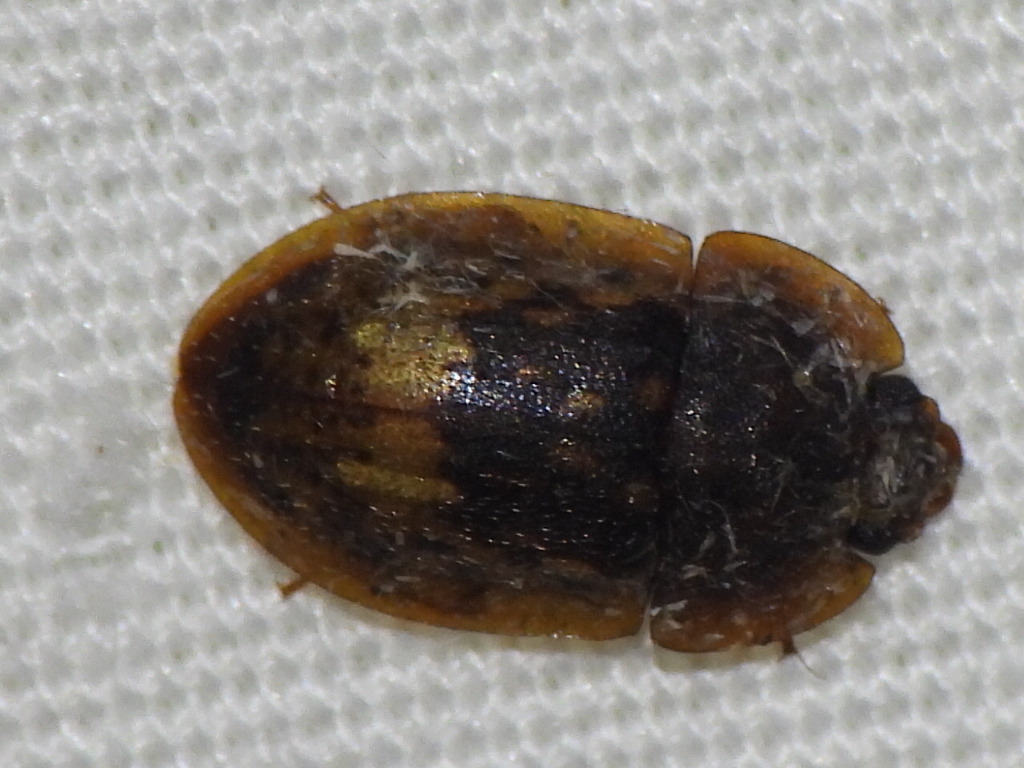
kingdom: Animalia
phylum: Arthropoda
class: Insecta
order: Coleoptera
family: Nitidulidae
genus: Lobiopa
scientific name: Lobiopa insularis
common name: Sap beetle
